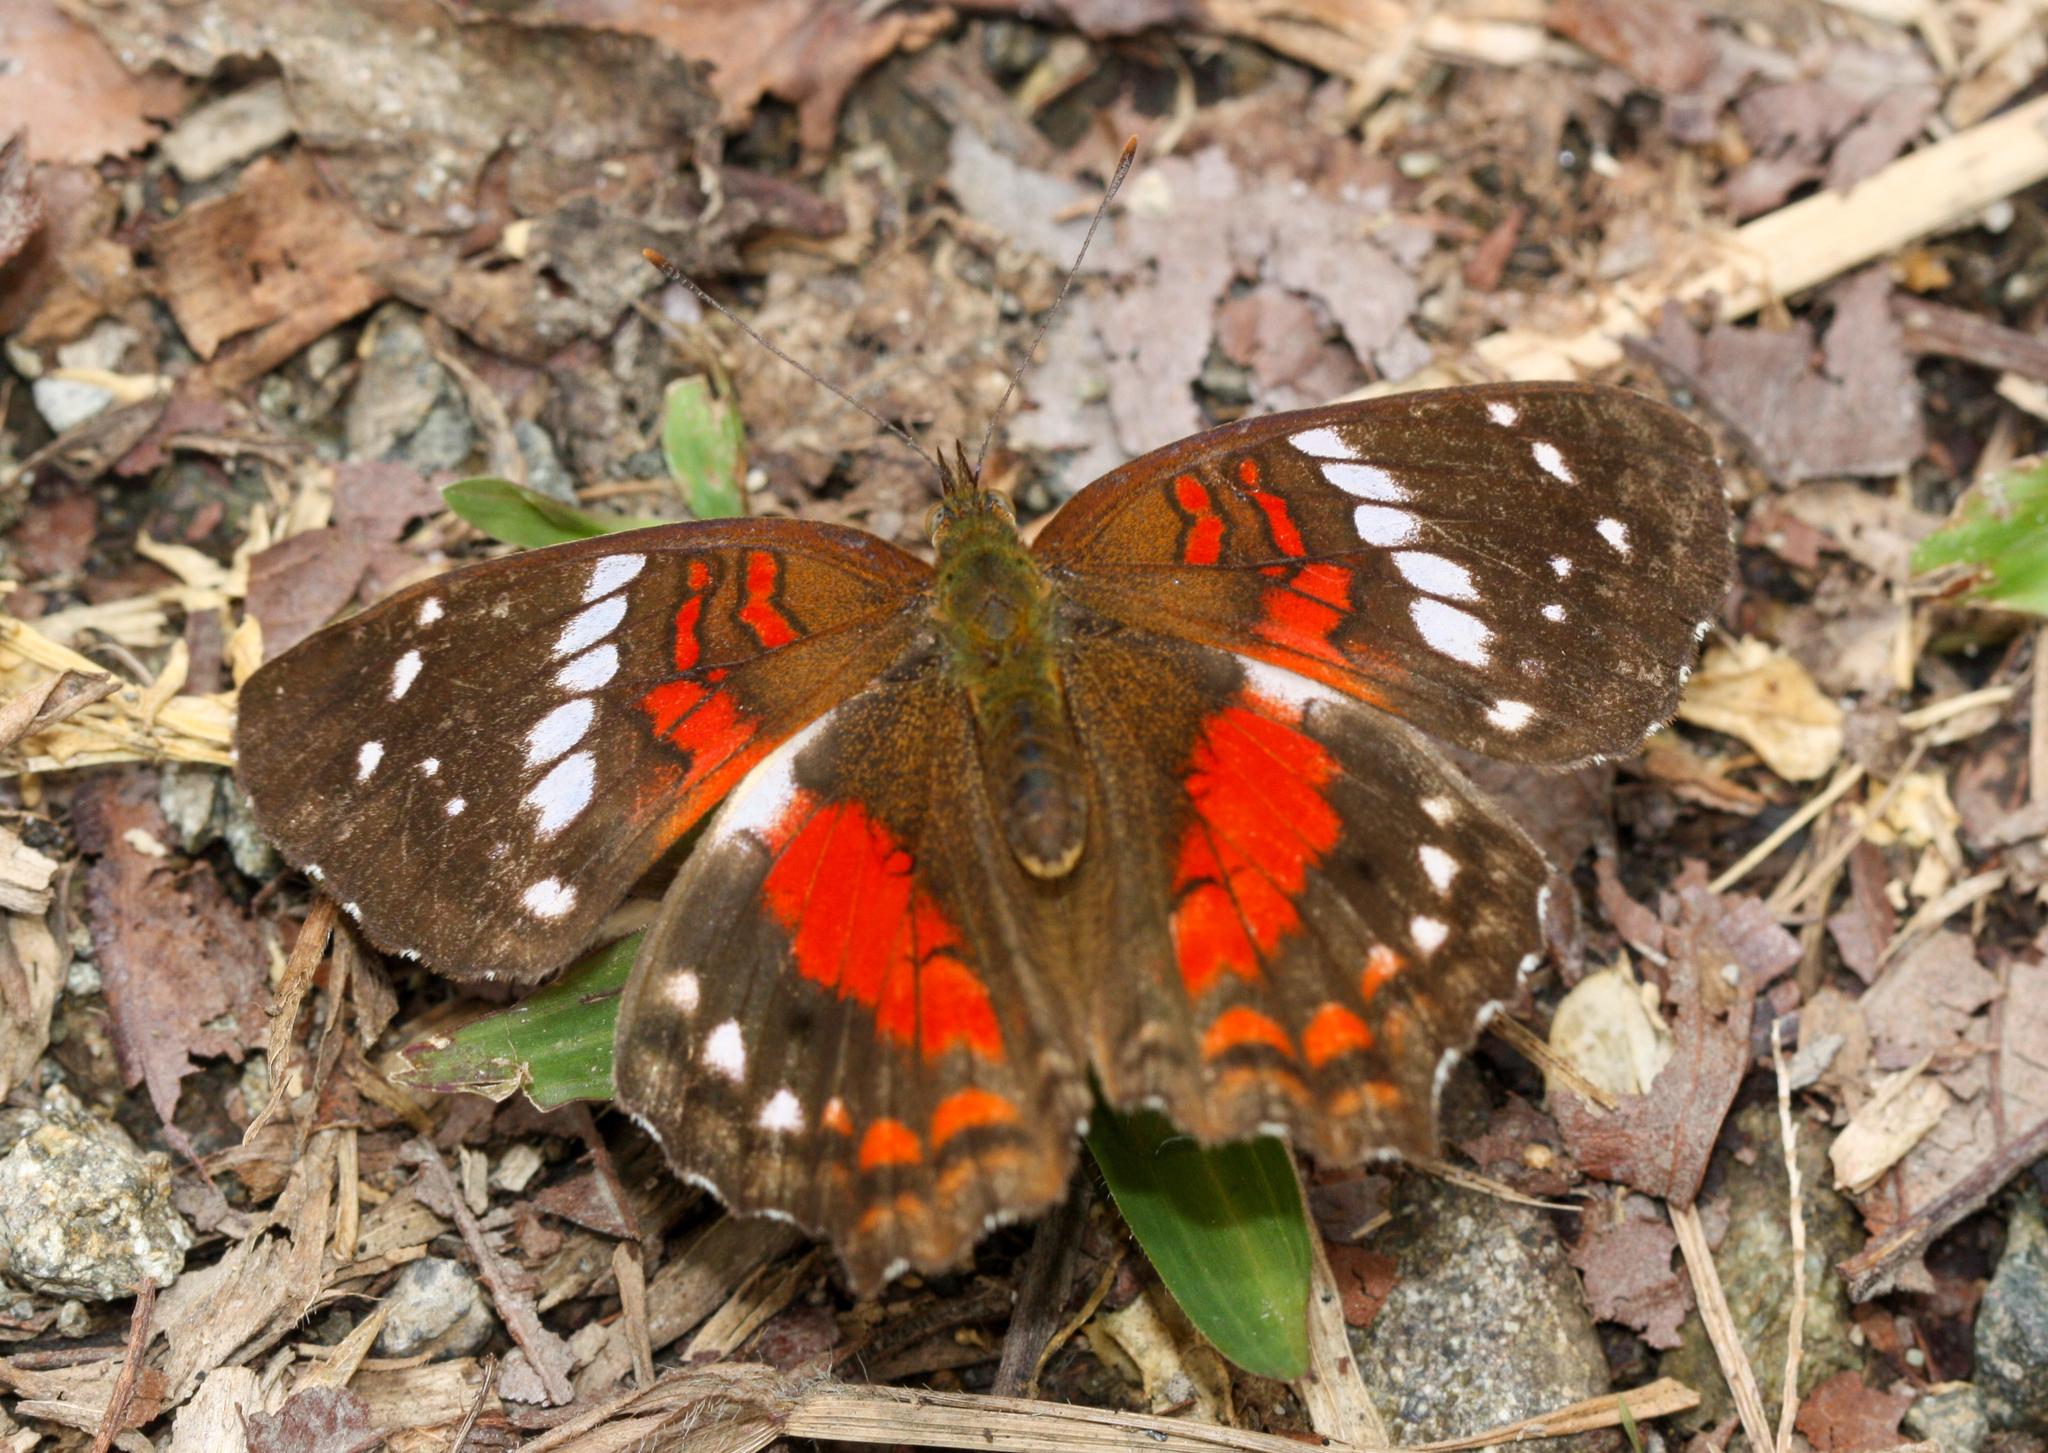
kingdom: Animalia
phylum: Arthropoda
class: Insecta
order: Lepidoptera
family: Nymphalidae
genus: Anartia
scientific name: Anartia amathea
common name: Red peacock
